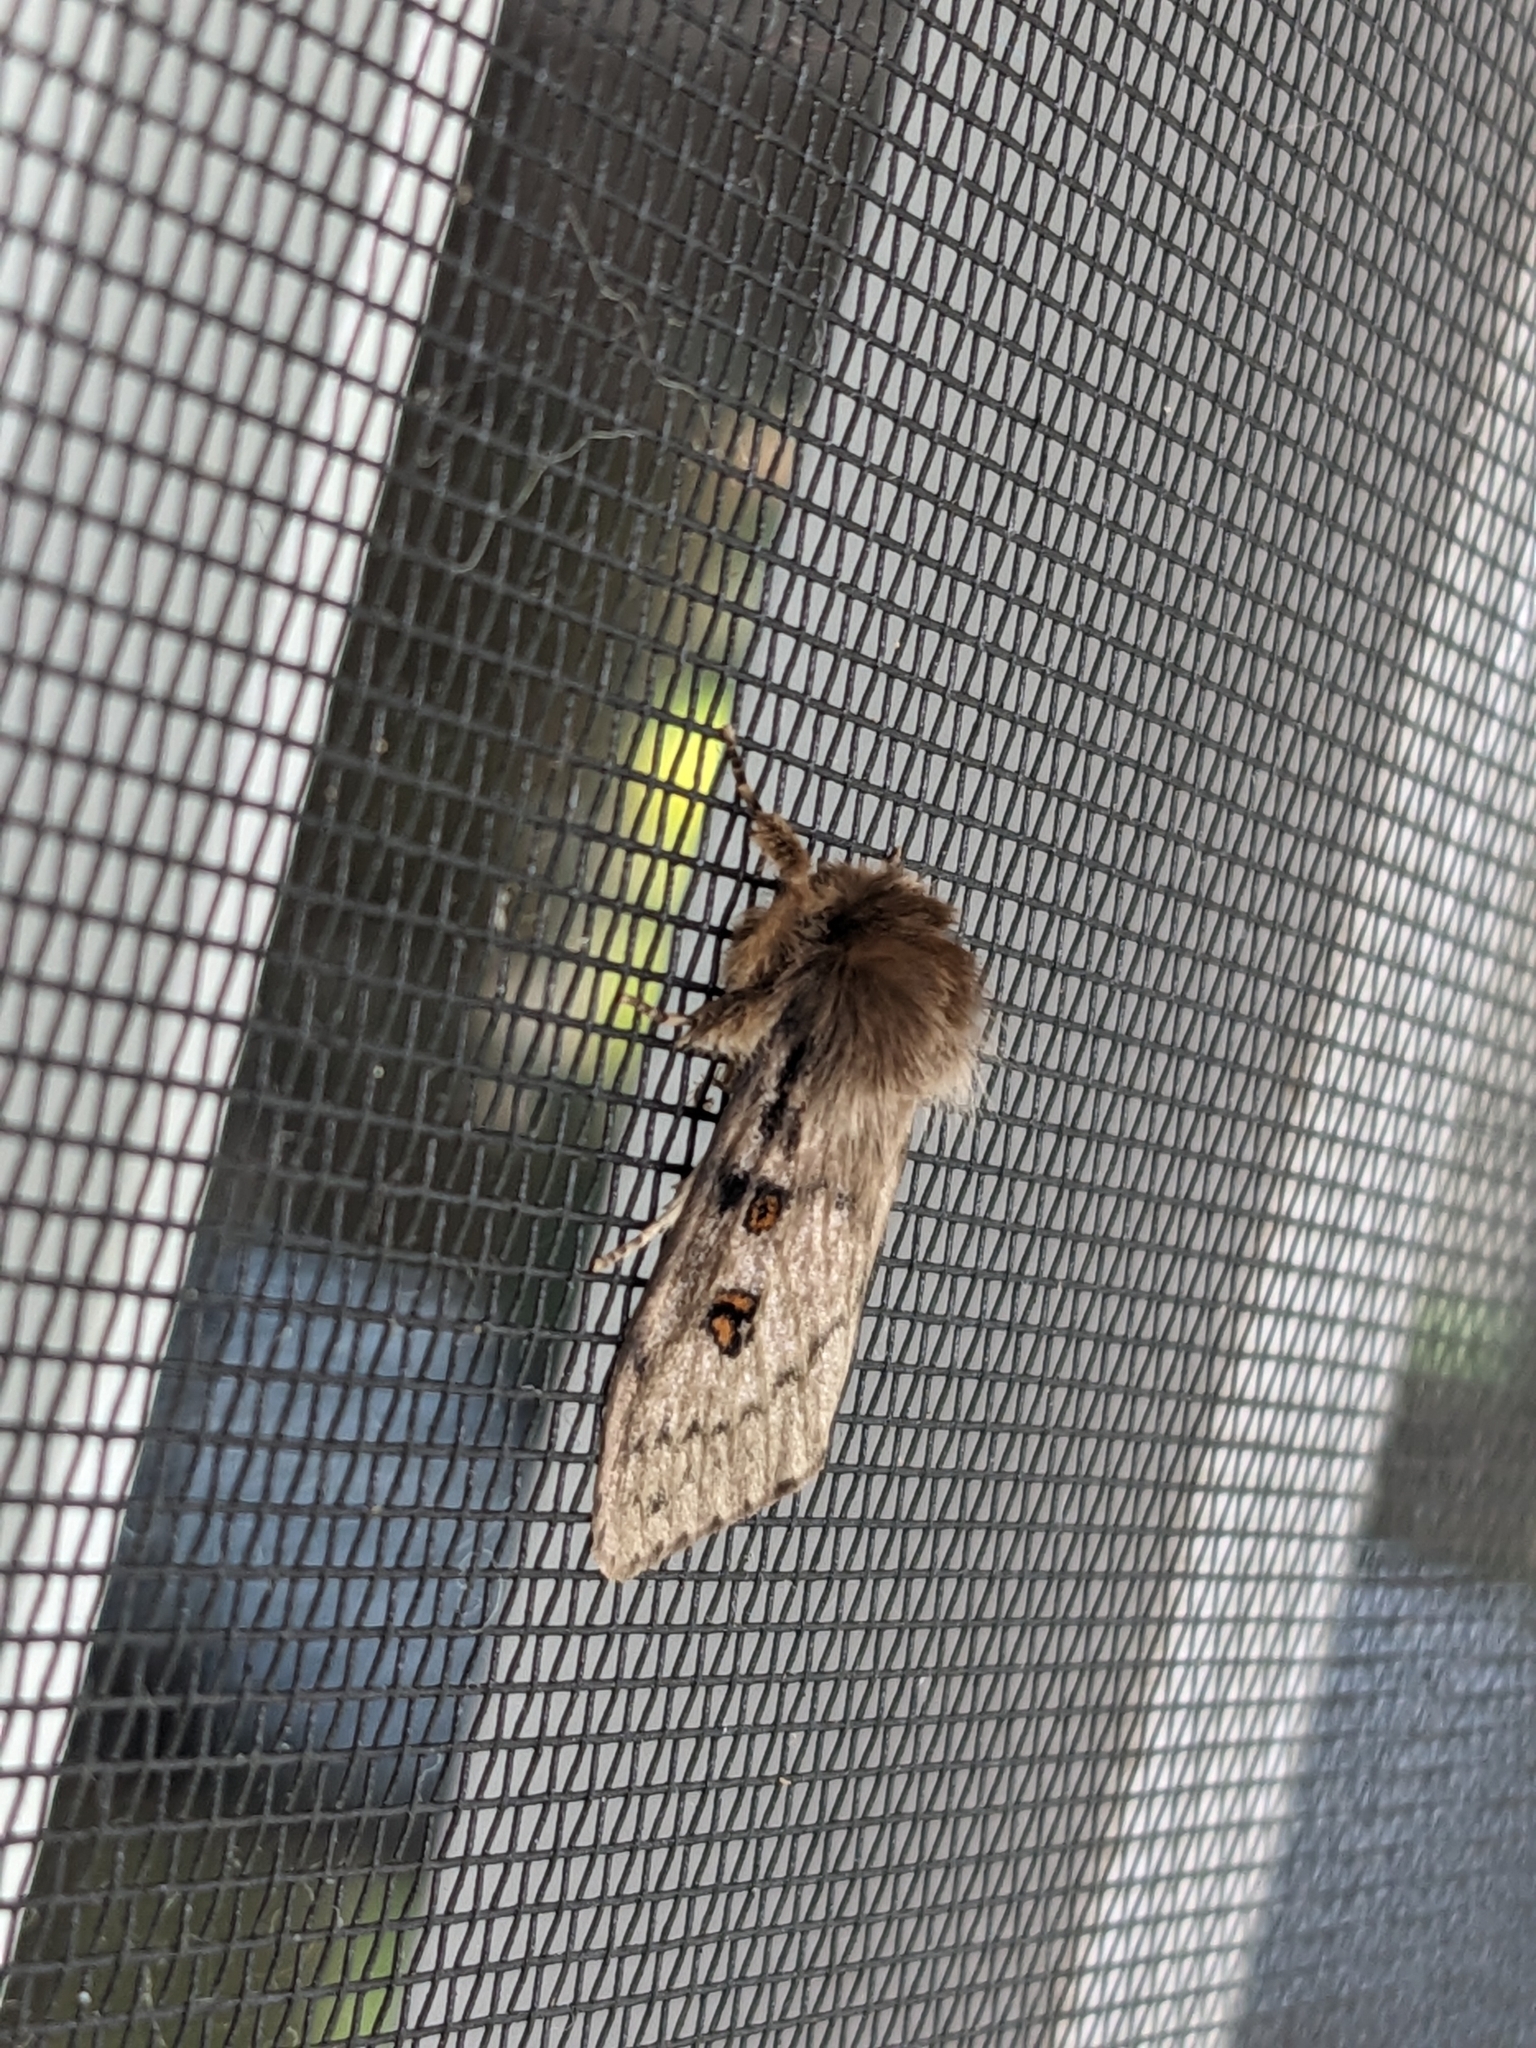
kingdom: Animalia
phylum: Arthropoda
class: Insecta
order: Lepidoptera
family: Erebidae
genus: Leptocneria
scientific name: Leptocneria reducta
